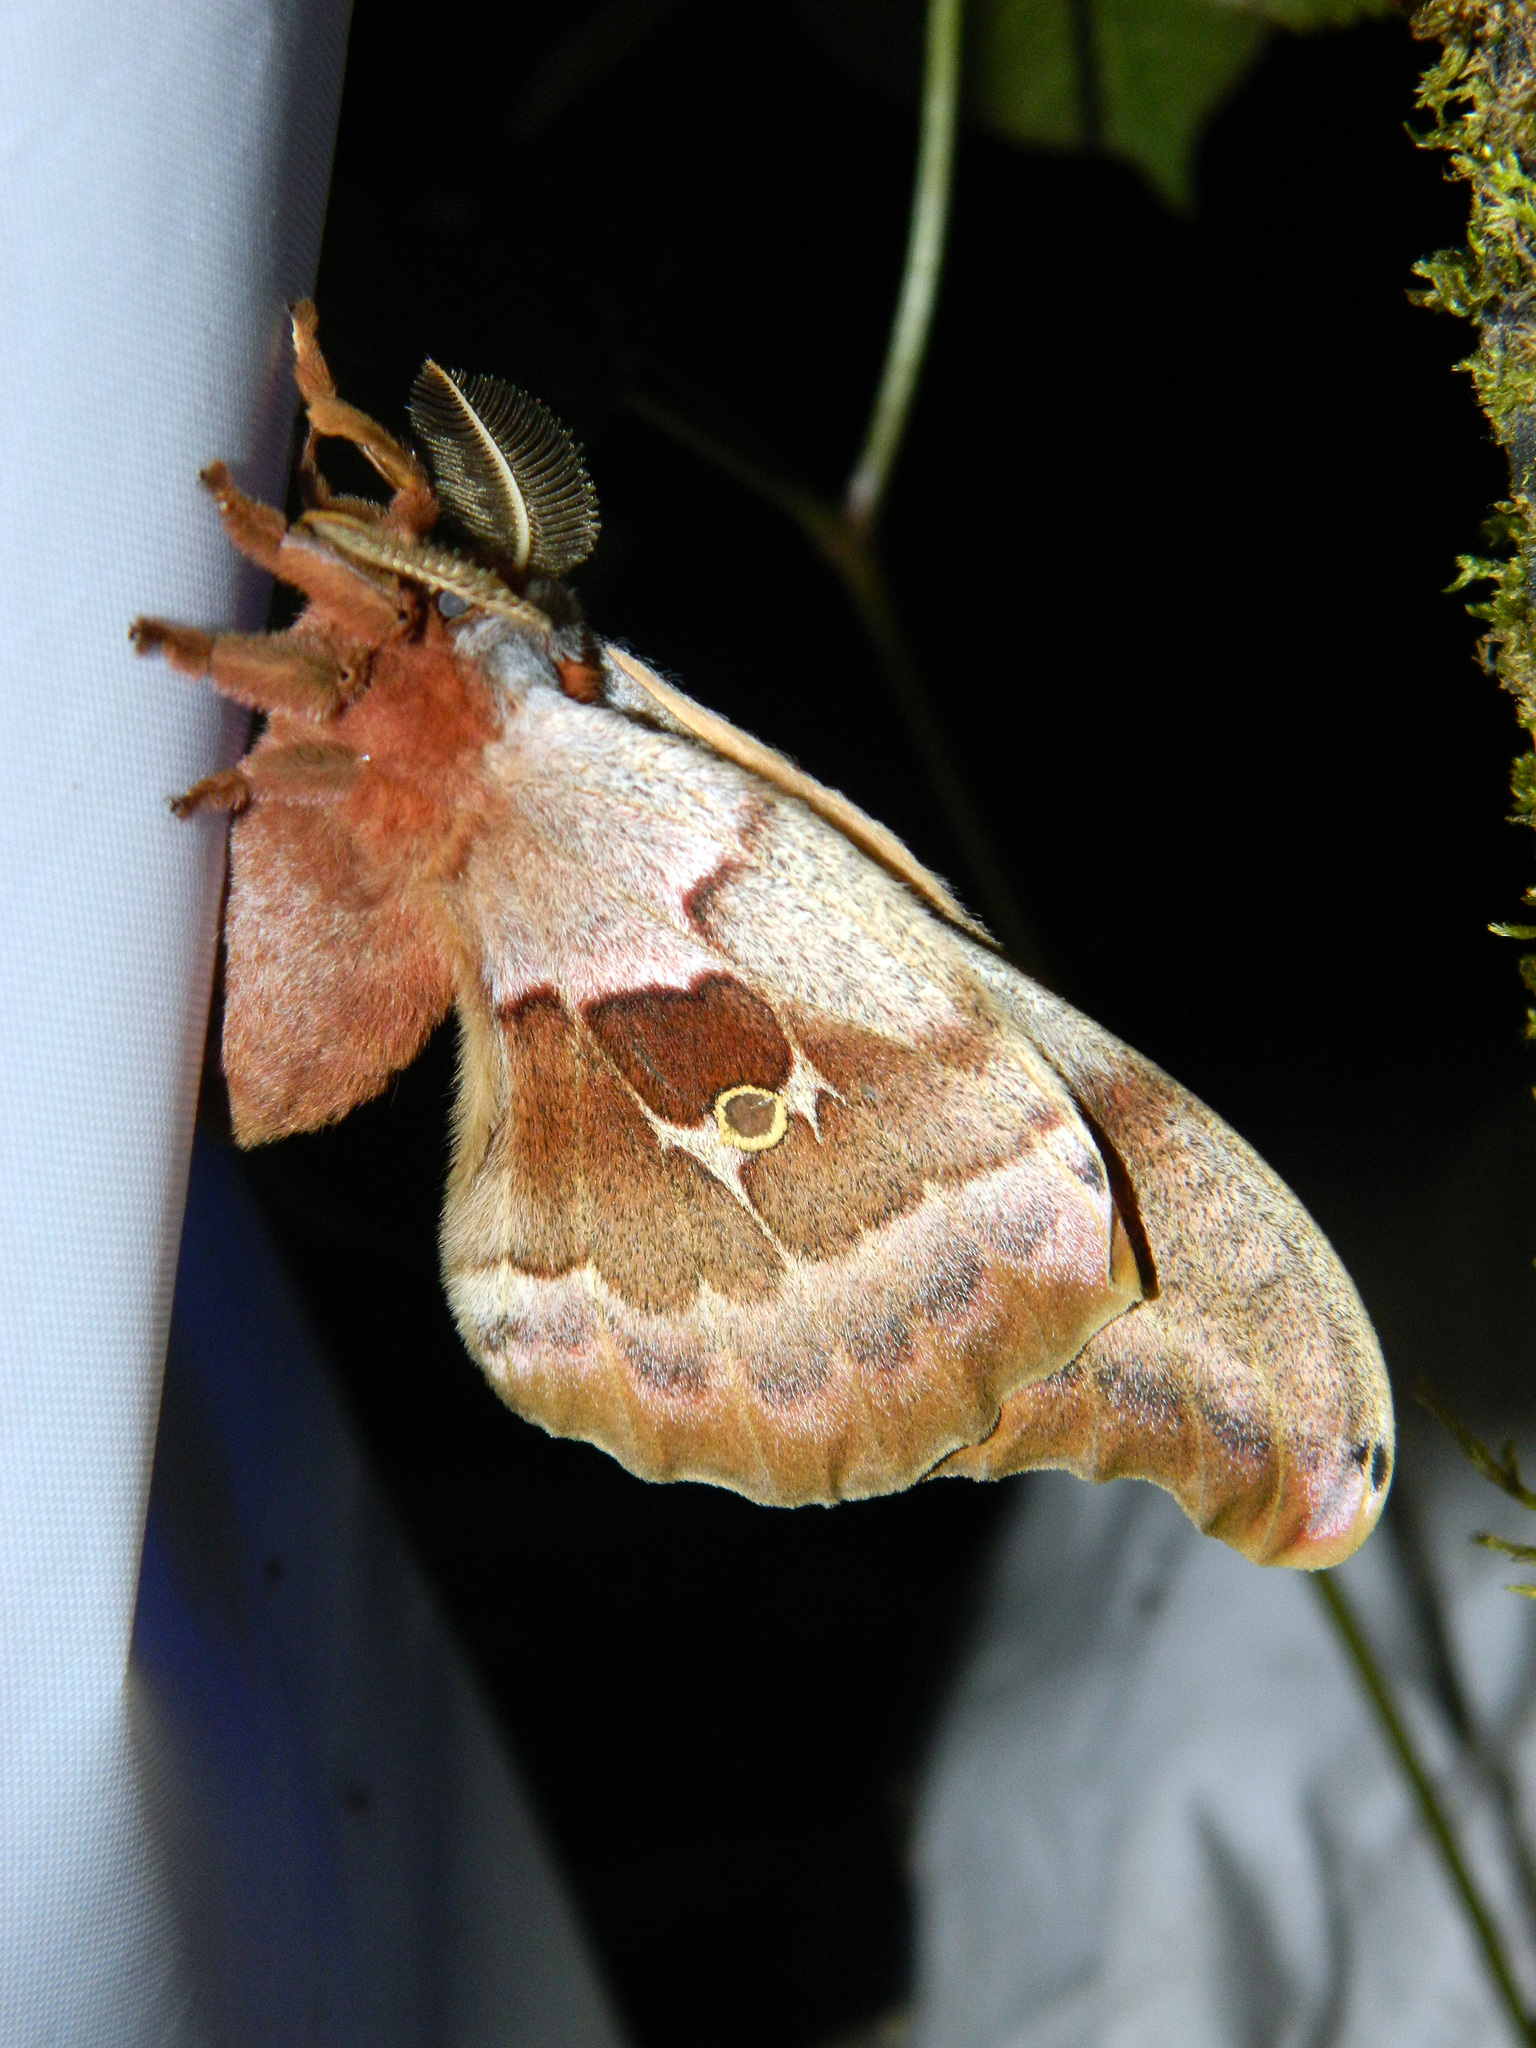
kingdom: Animalia
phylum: Arthropoda
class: Insecta
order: Lepidoptera
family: Saturniidae
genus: Antheraea
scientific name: Antheraea polyphemus
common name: Polyphemus moth
